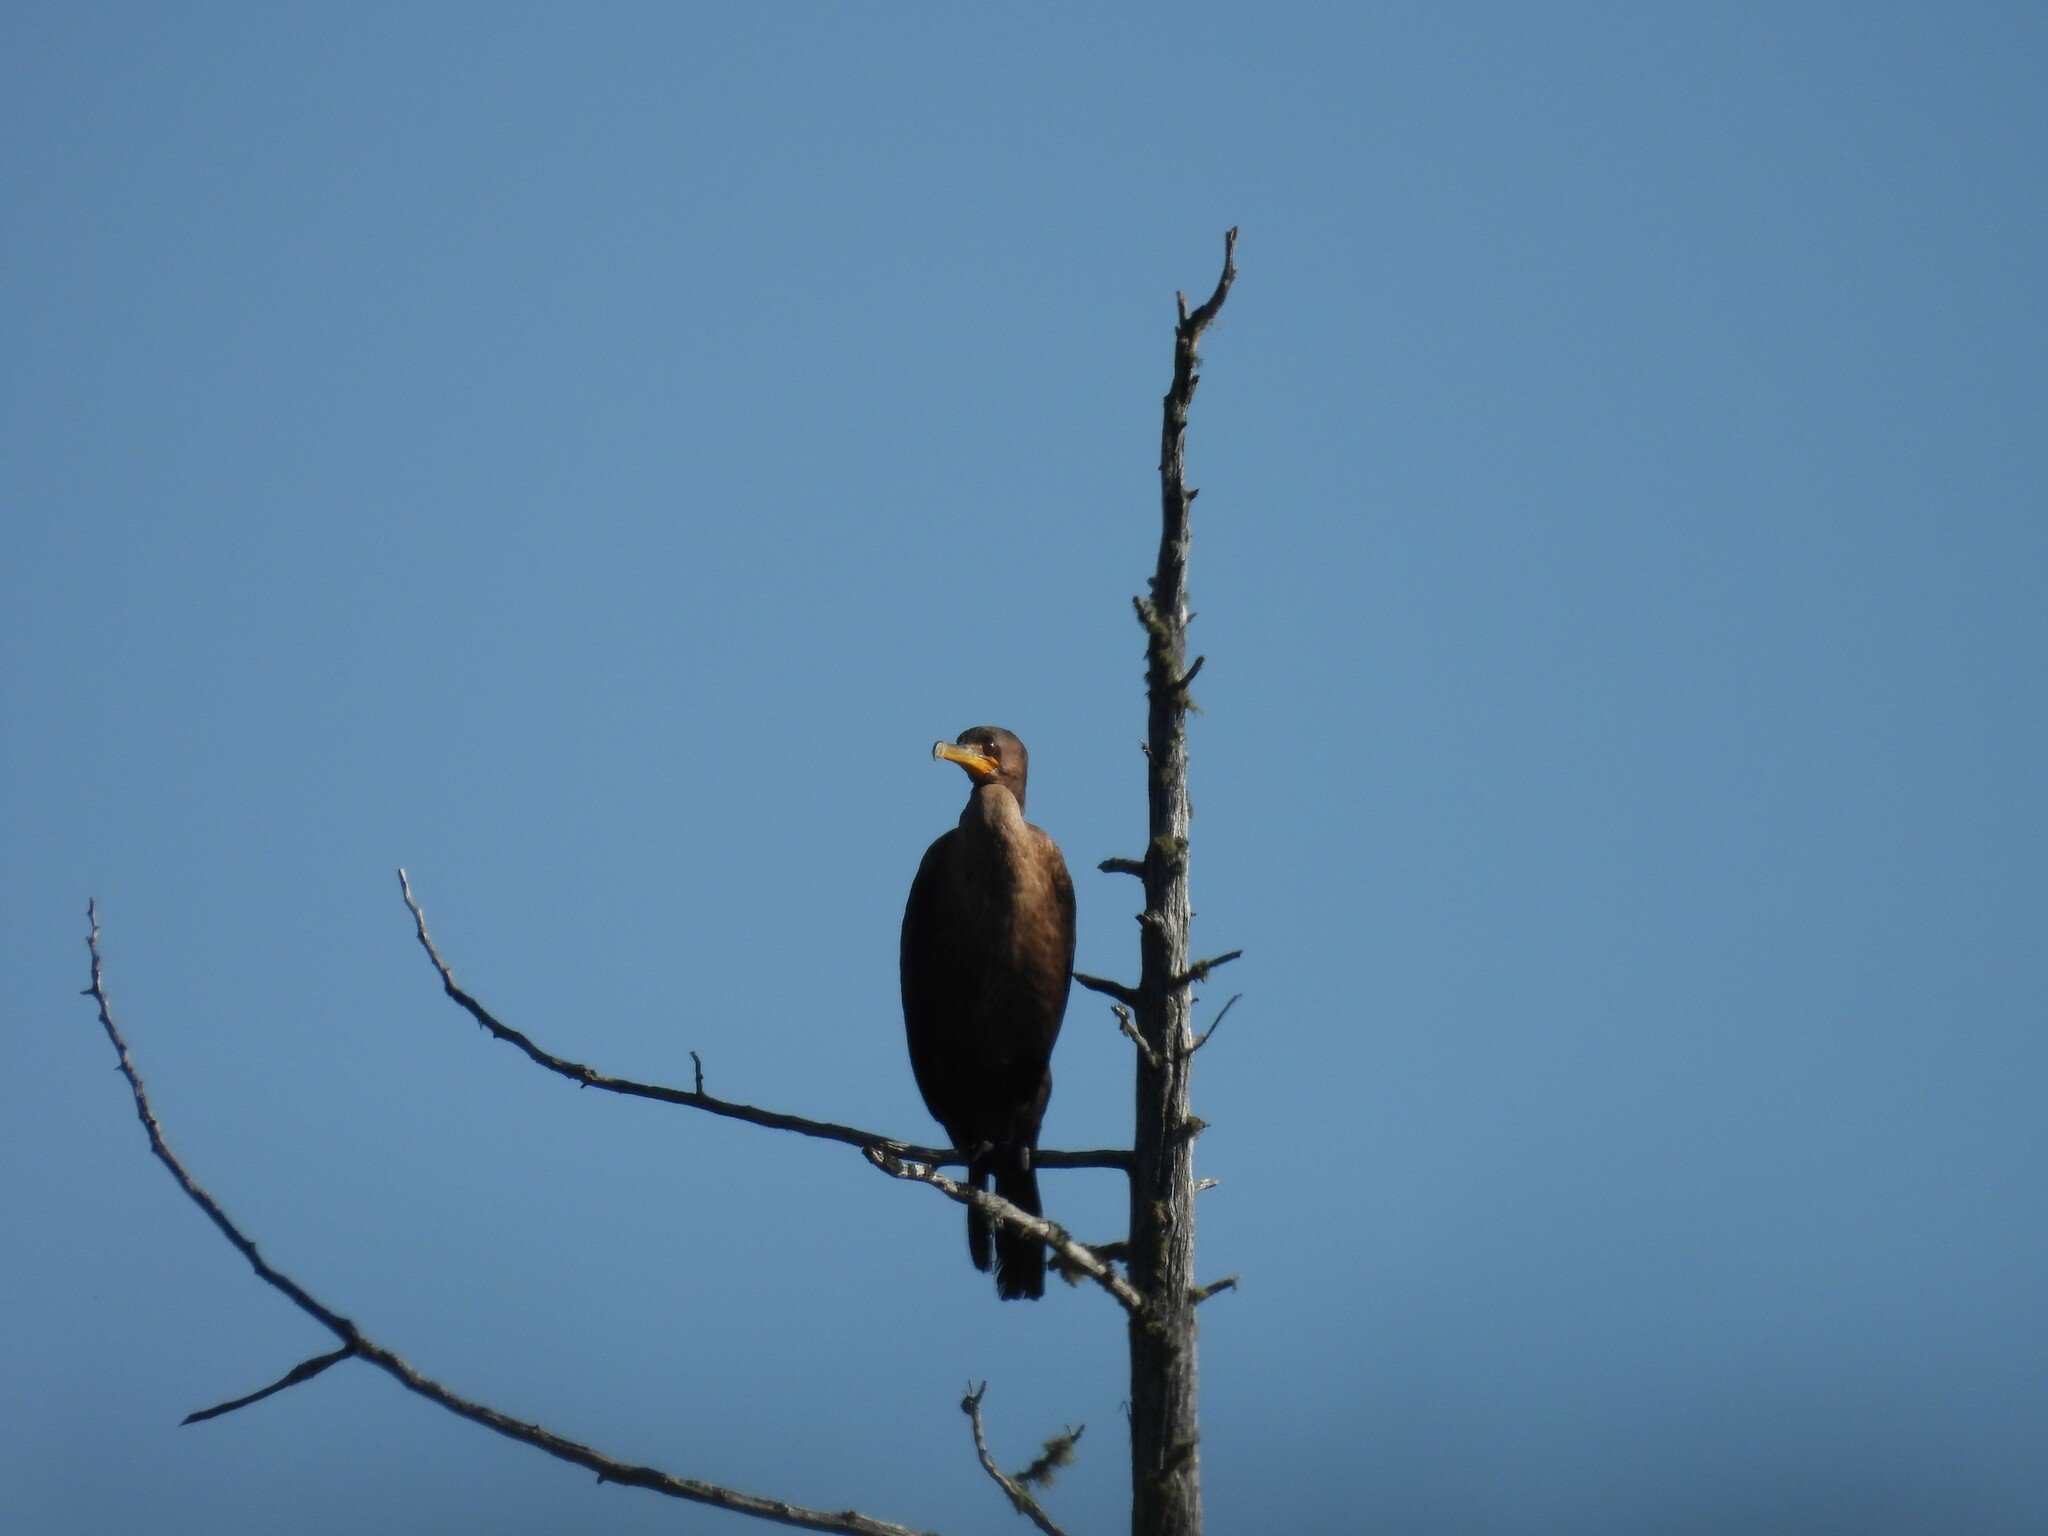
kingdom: Animalia
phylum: Chordata
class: Aves
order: Suliformes
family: Phalacrocoracidae
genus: Phalacrocorax
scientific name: Phalacrocorax auritus
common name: Double-crested cormorant
